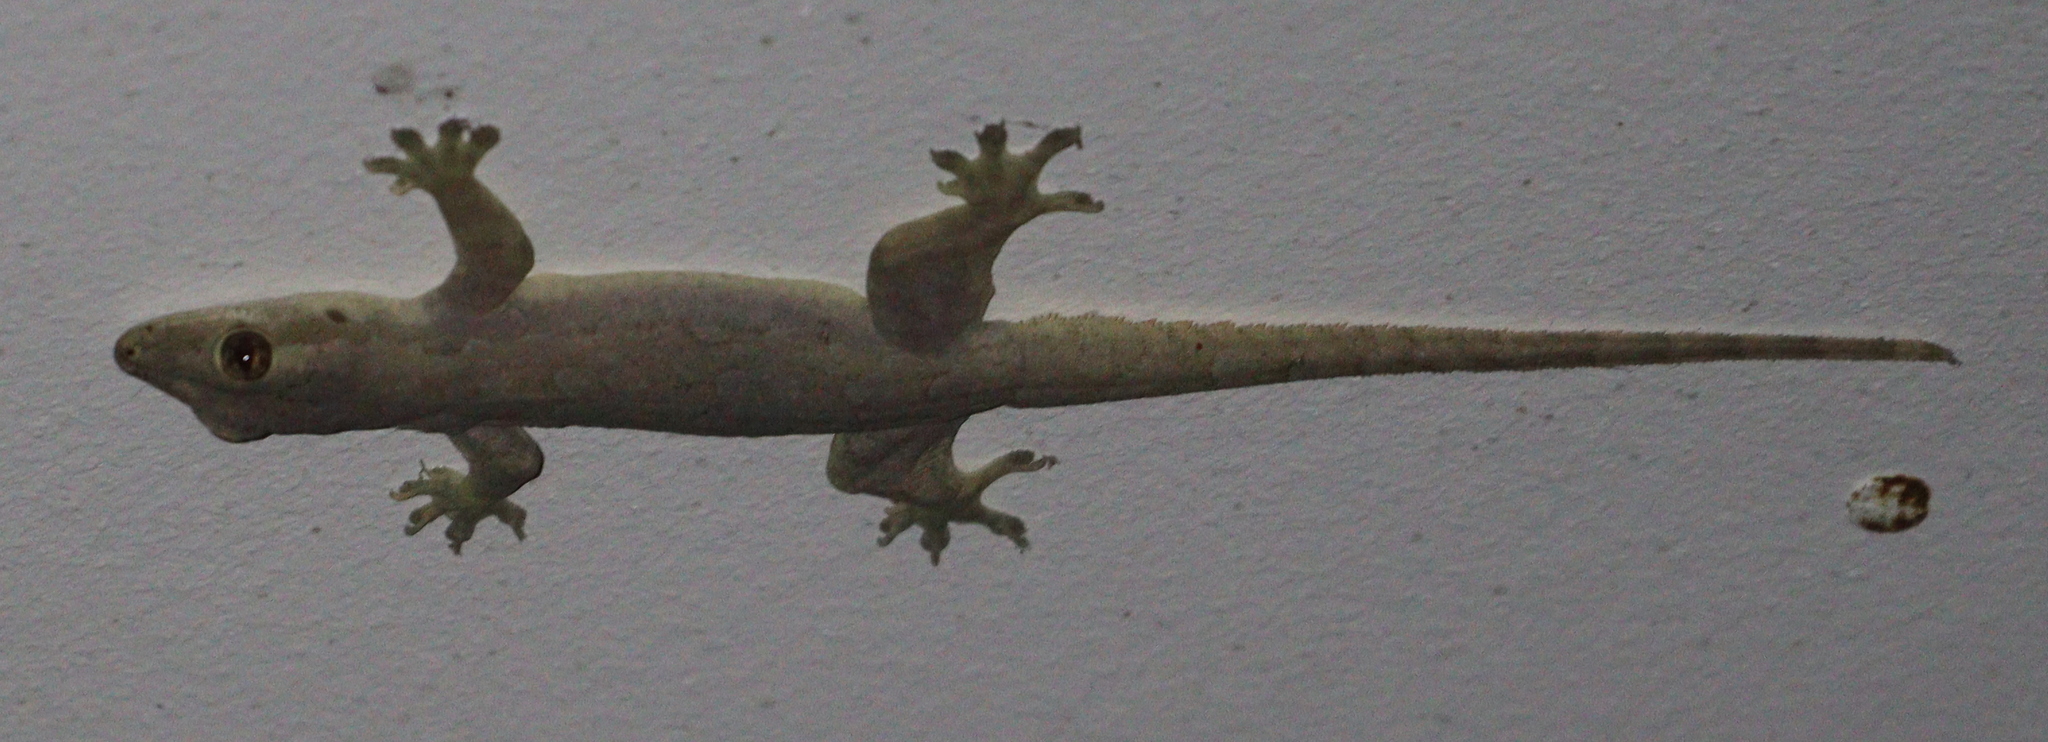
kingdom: Animalia
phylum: Chordata
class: Squamata
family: Gekkonidae
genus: Hemidactylus
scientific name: Hemidactylus platyurus
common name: Flat-tailed house gecko
